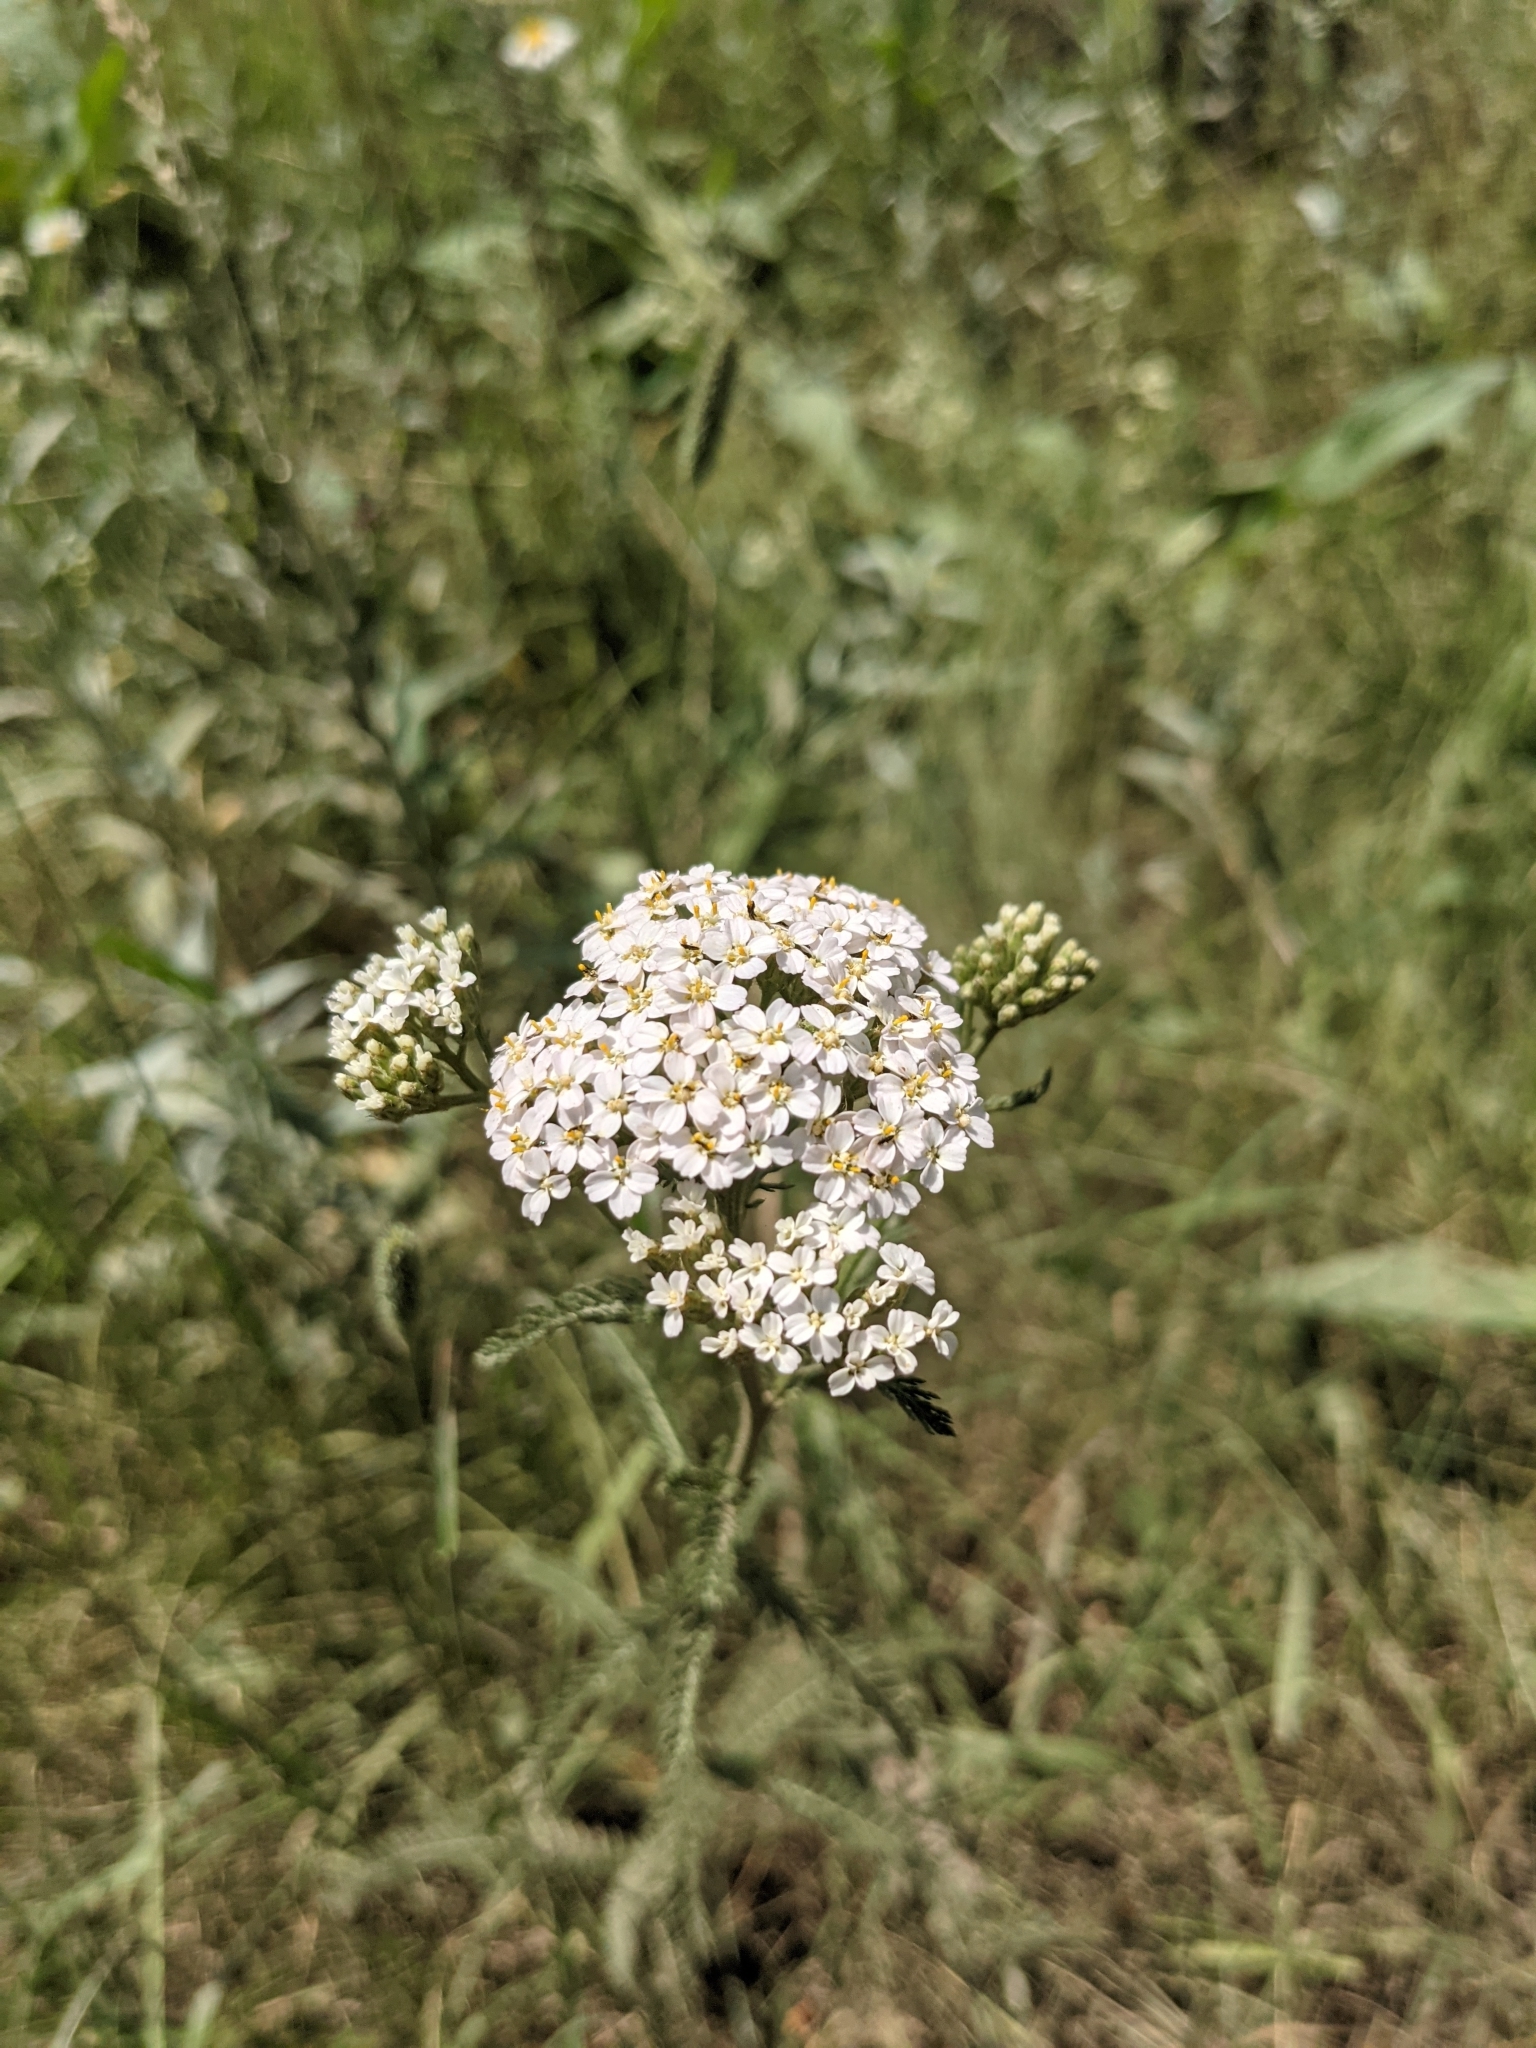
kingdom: Plantae
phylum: Tracheophyta
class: Magnoliopsida
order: Asterales
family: Asteraceae
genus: Achillea
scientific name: Achillea millefolium
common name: Yarrow
